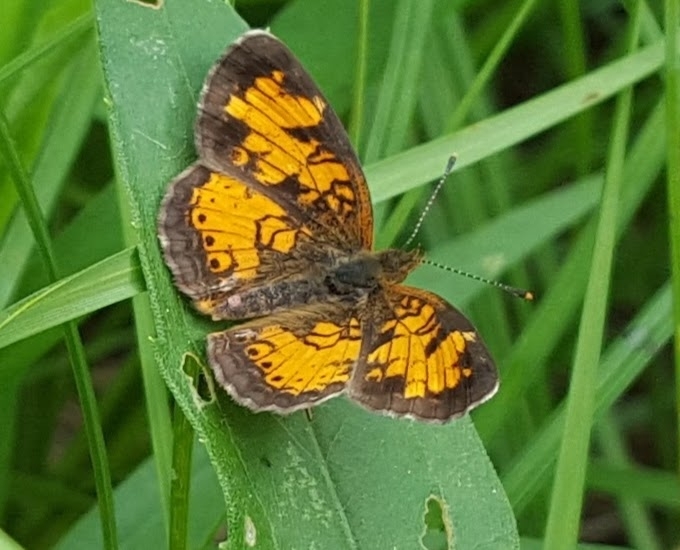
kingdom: Animalia
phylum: Arthropoda
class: Insecta
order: Lepidoptera
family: Nymphalidae
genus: Phyciodes
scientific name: Phyciodes tharos
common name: Pearl crescent
